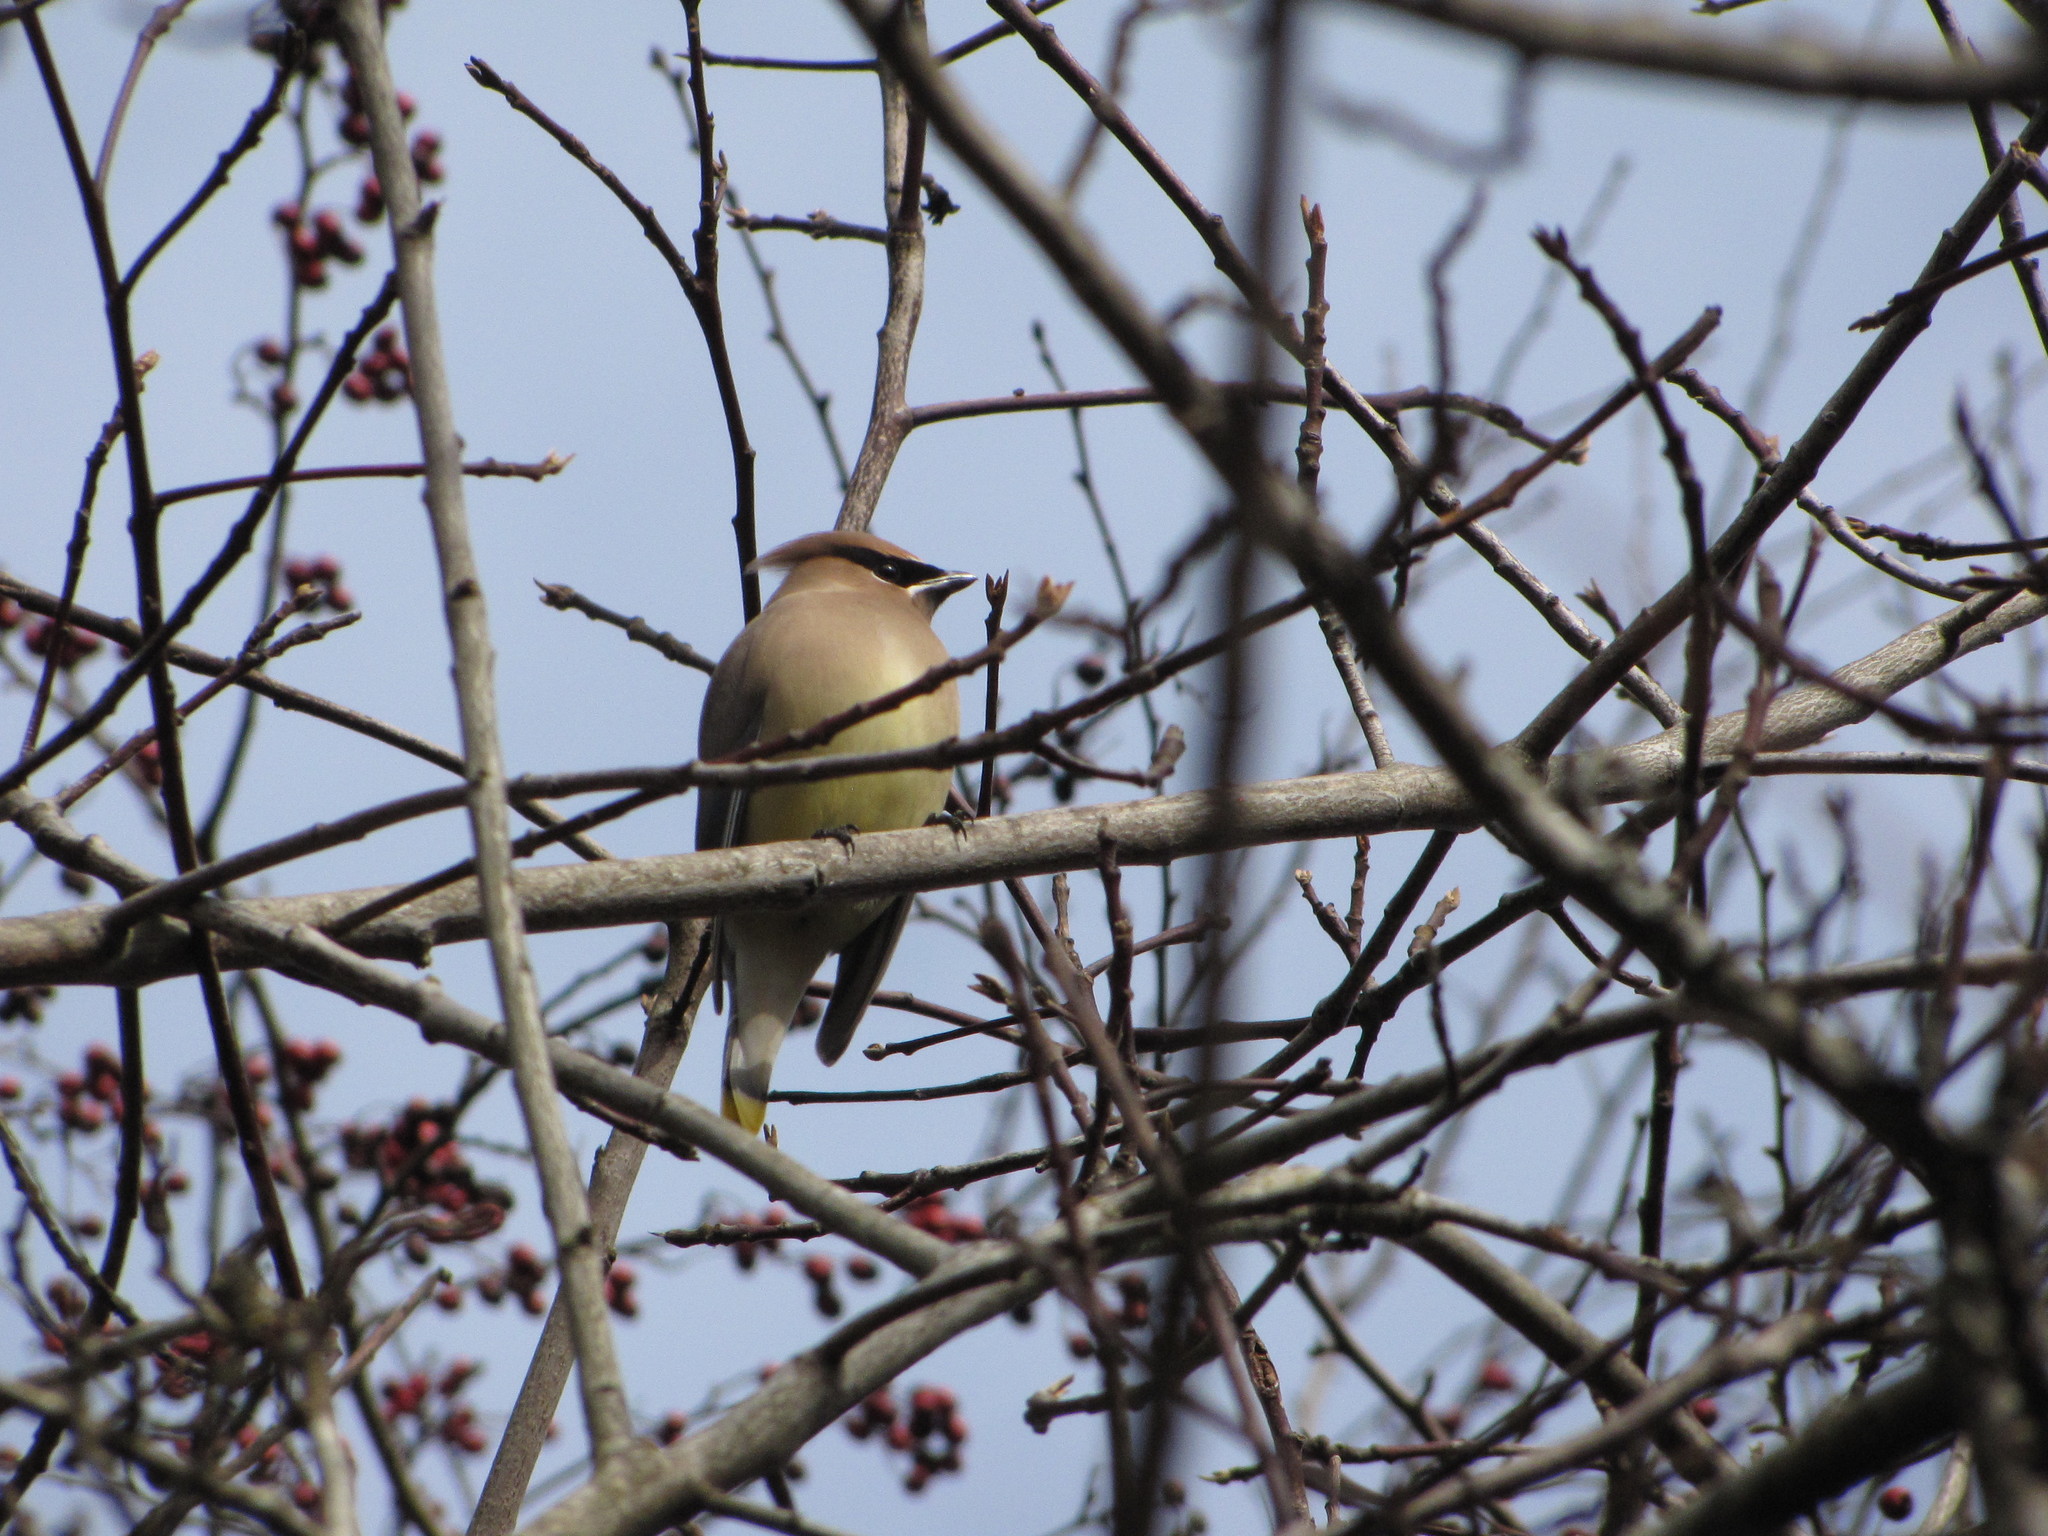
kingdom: Animalia
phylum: Chordata
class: Aves
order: Passeriformes
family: Bombycillidae
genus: Bombycilla
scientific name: Bombycilla cedrorum
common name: Cedar waxwing
